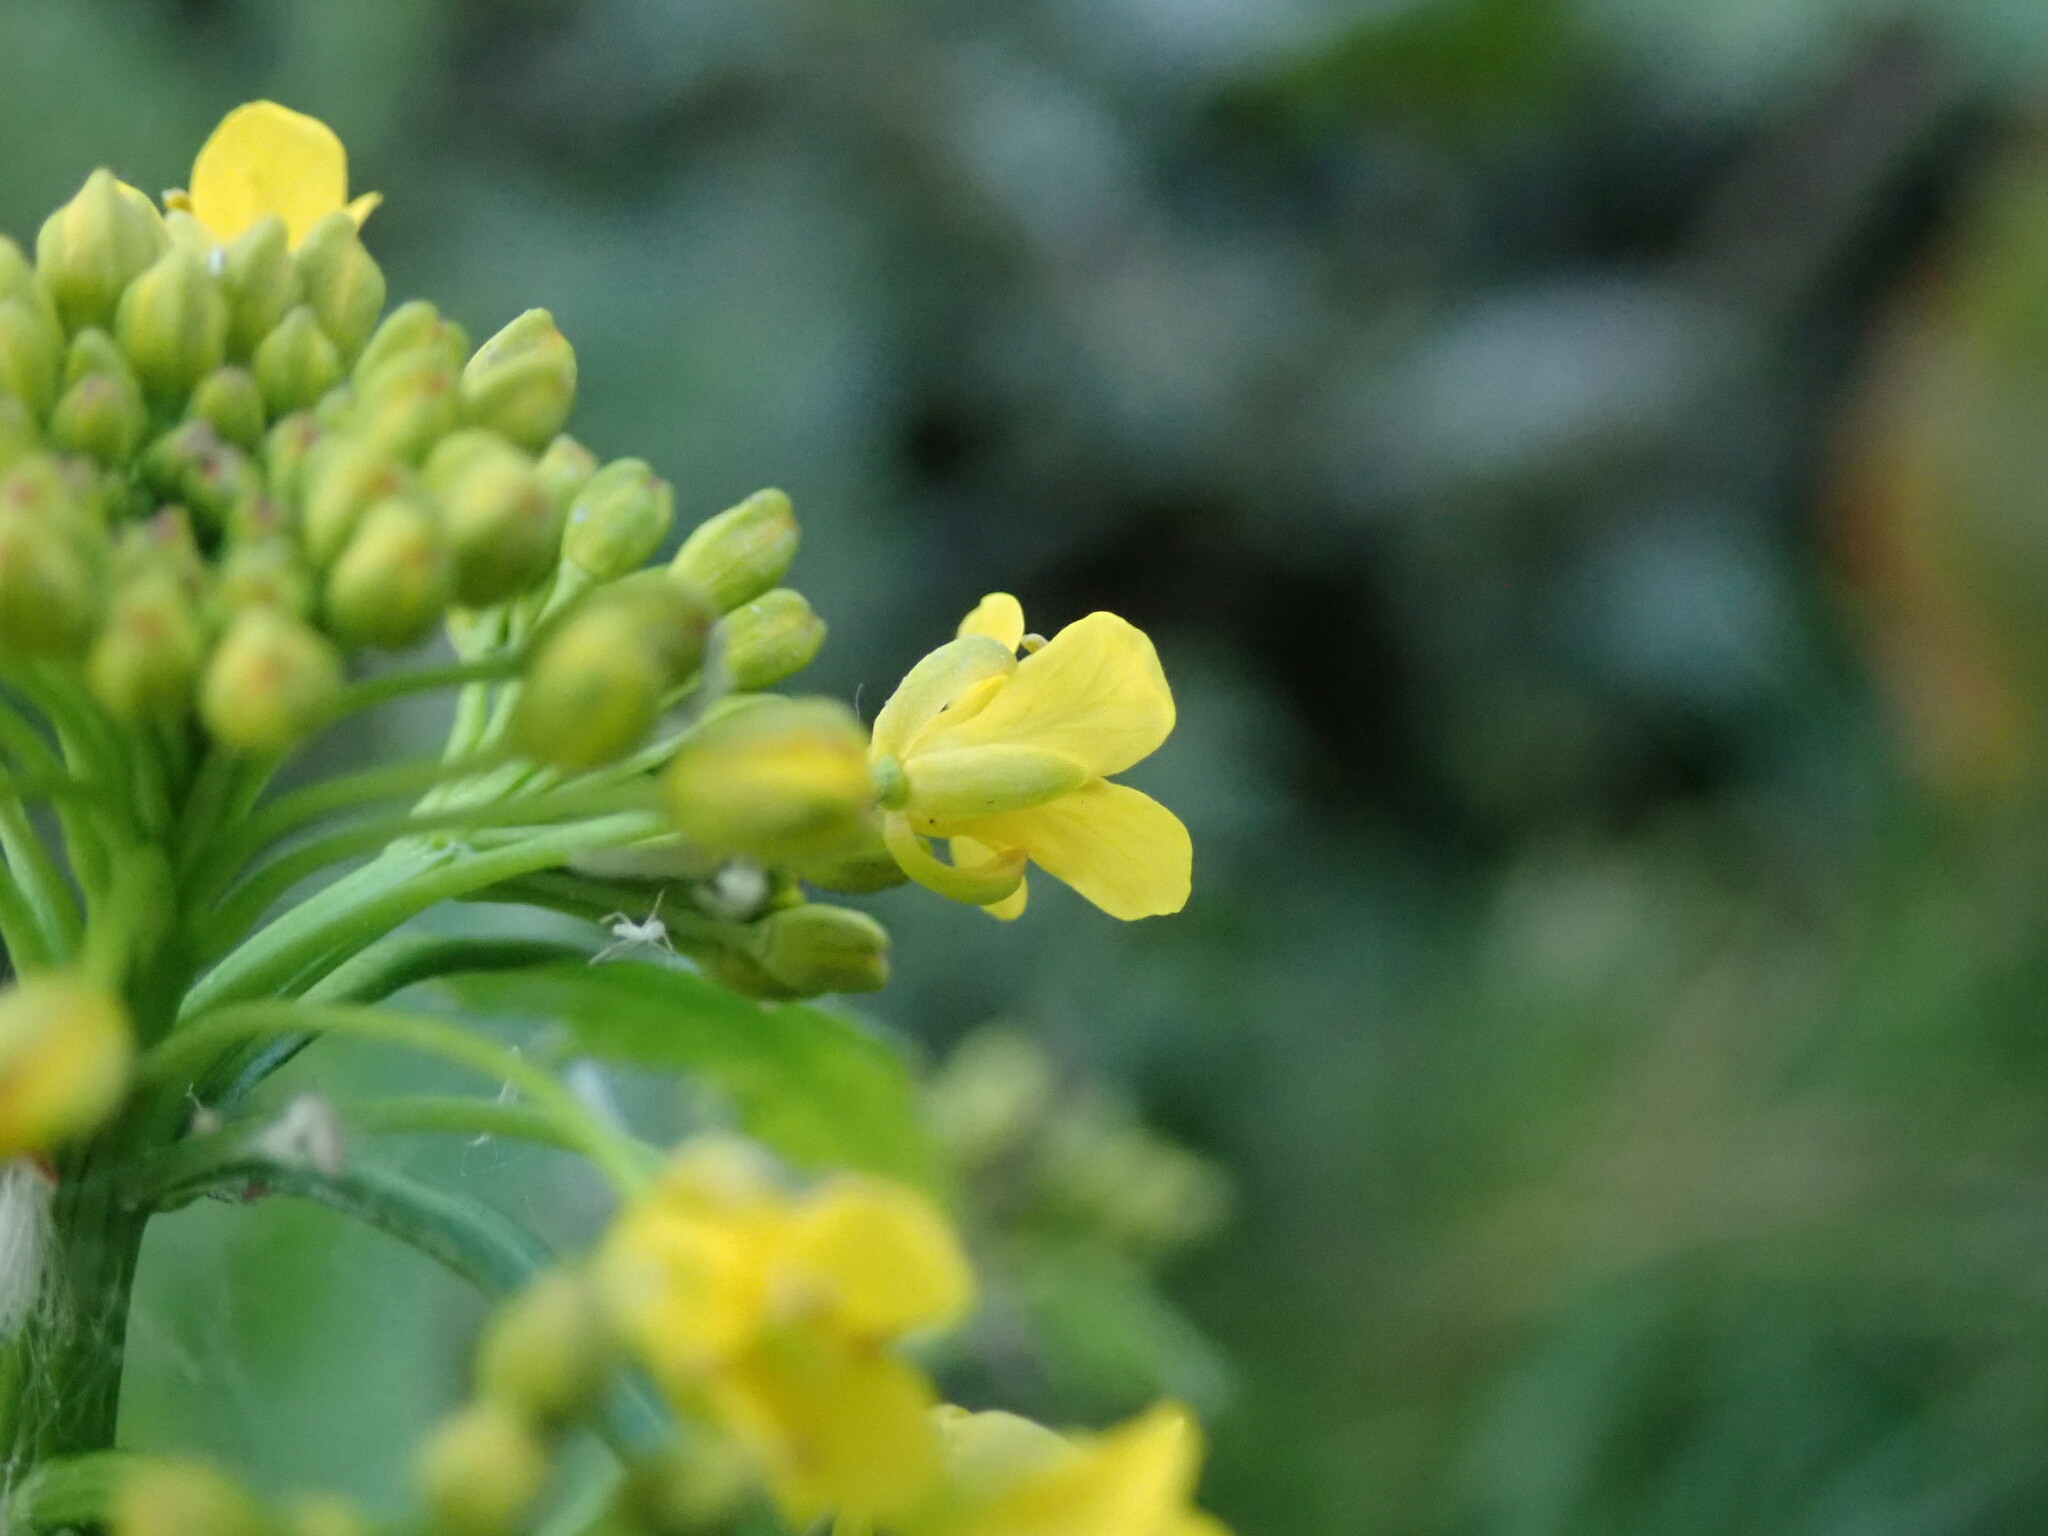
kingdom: Plantae
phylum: Tracheophyta
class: Magnoliopsida
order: Brassicales
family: Brassicaceae
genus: Rorippa
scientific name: Rorippa amphibia
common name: Great yellow-cress
